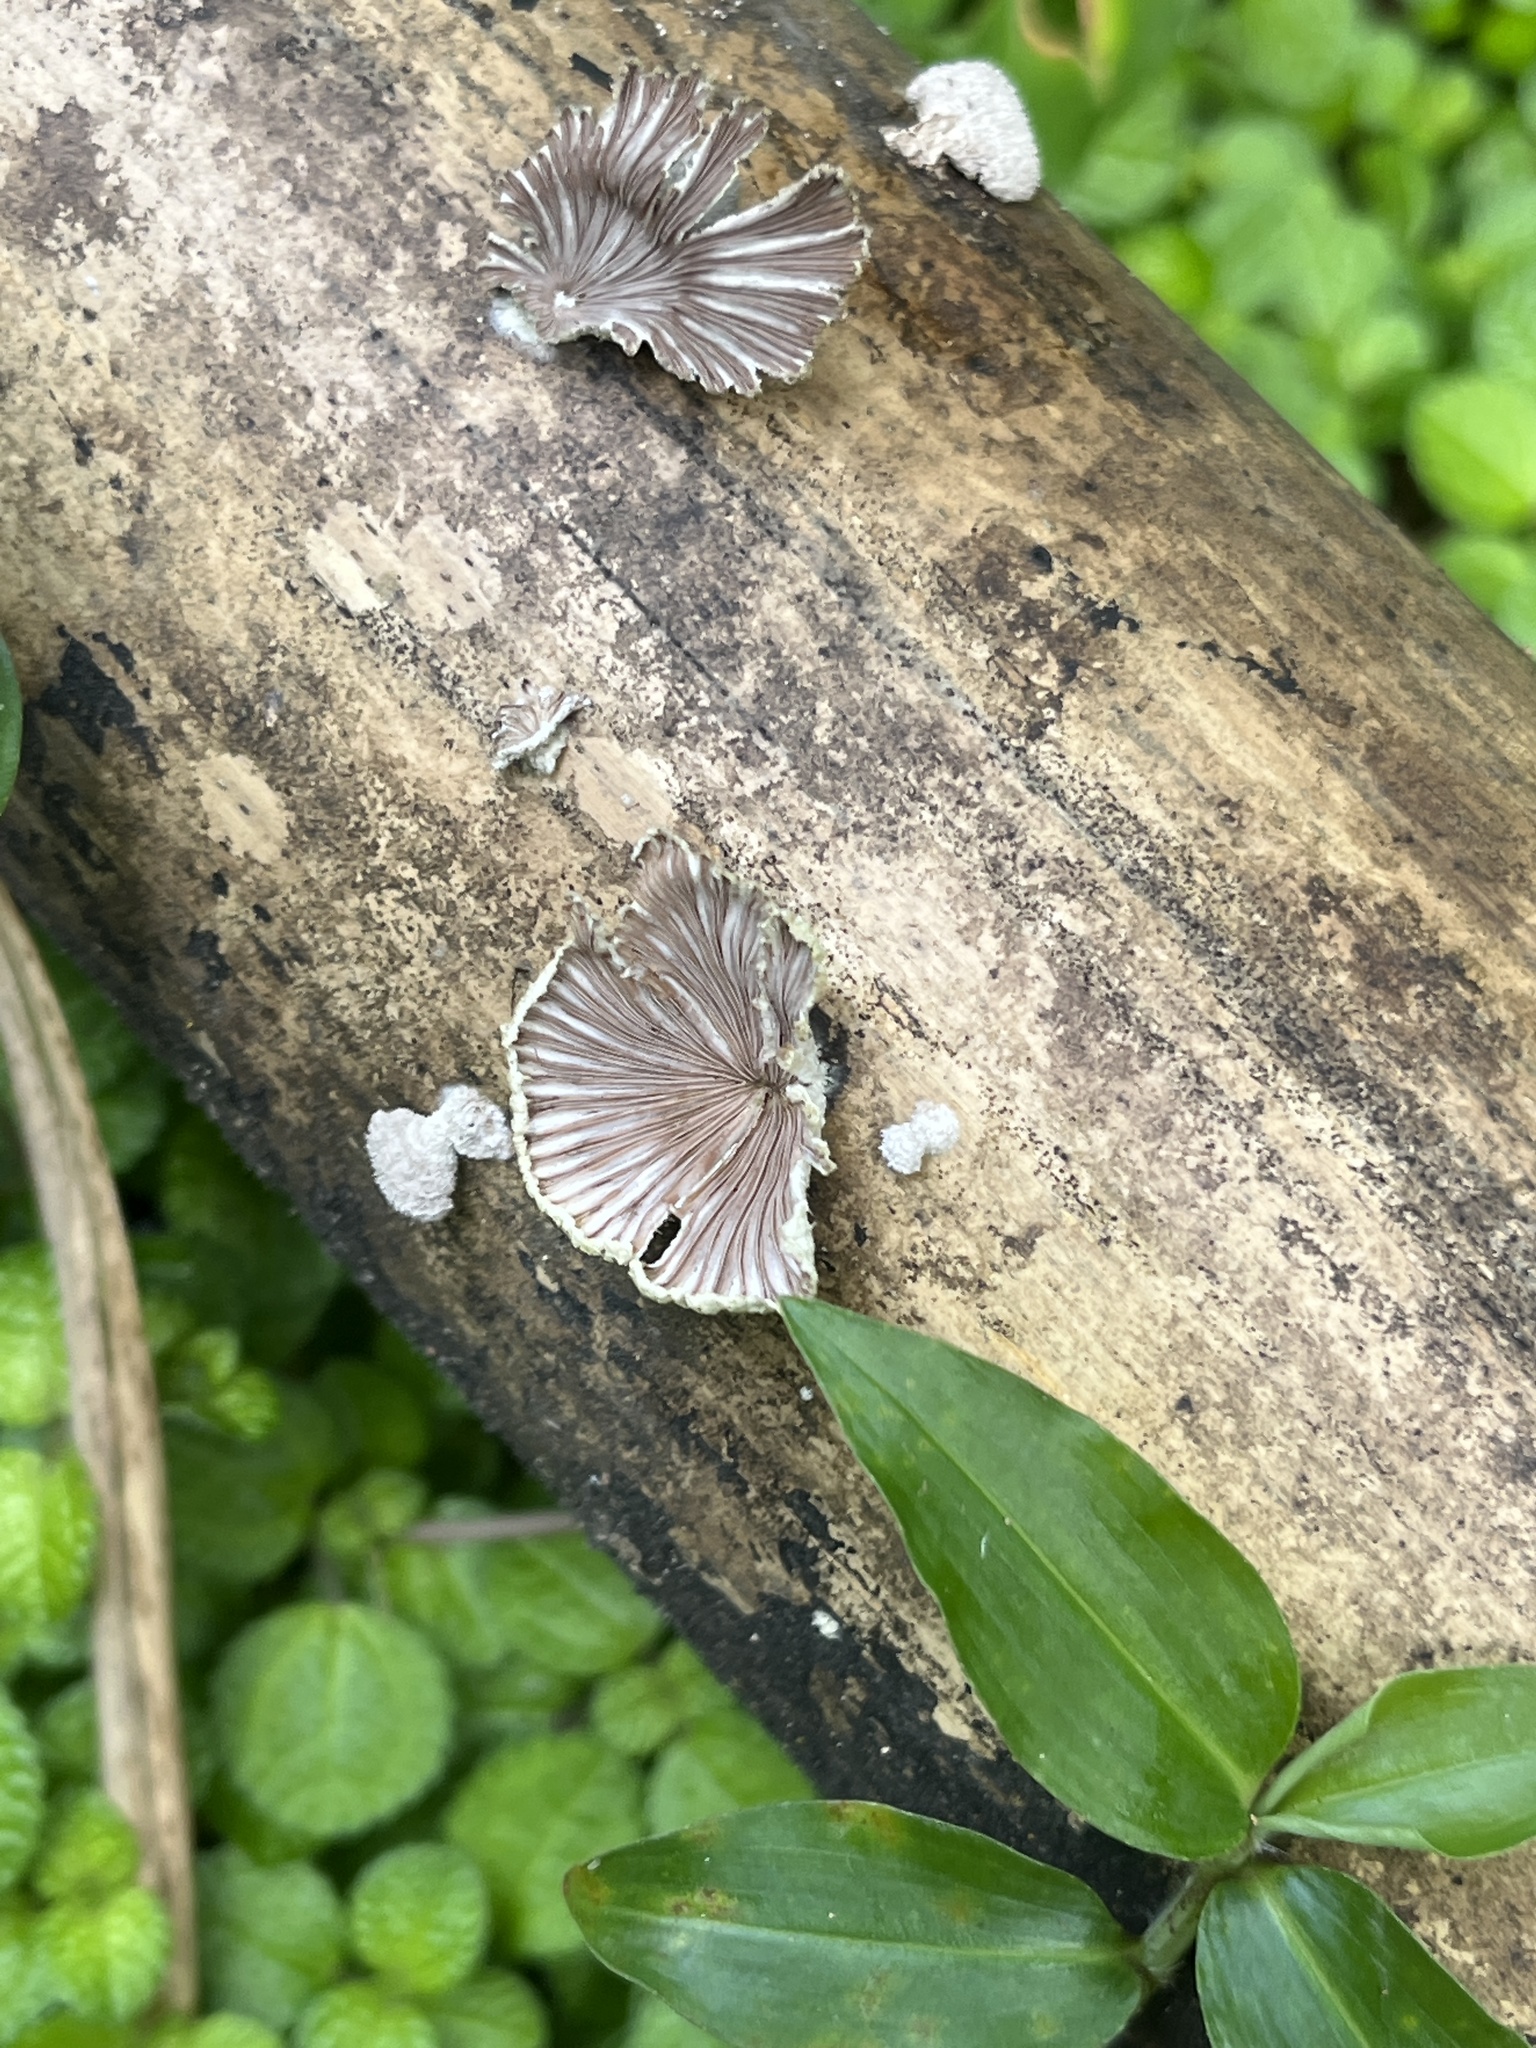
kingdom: Fungi
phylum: Basidiomycota
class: Agaricomycetes
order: Agaricales
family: Schizophyllaceae
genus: Schizophyllum
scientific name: Schizophyllum commune
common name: Common porecrust
